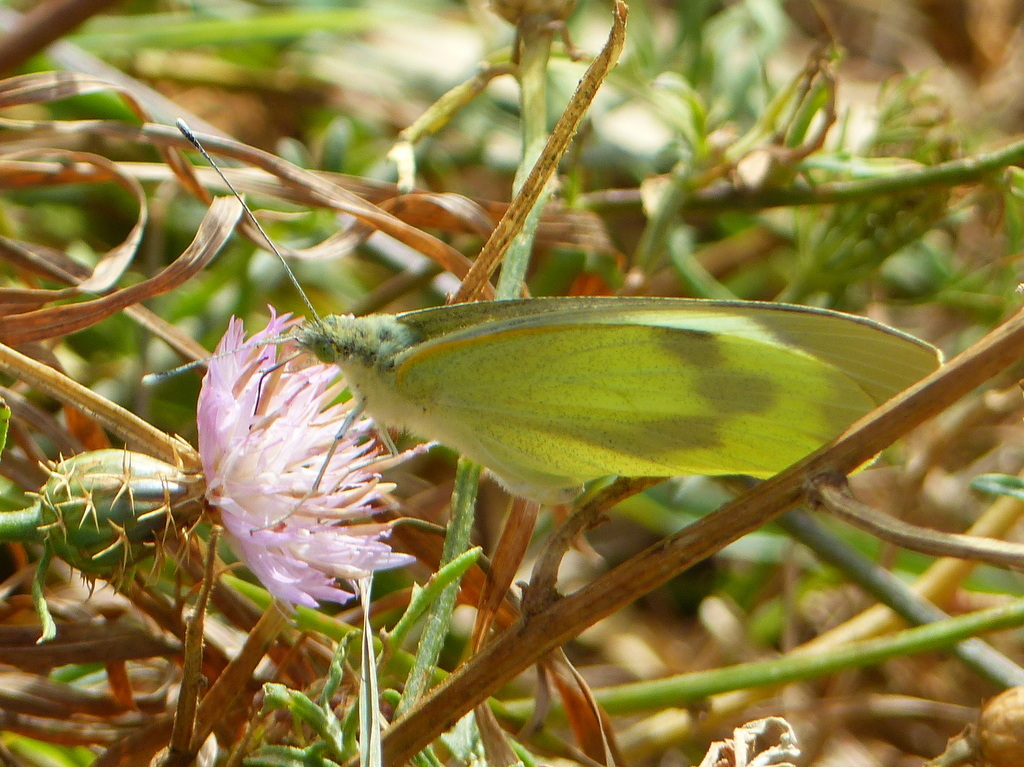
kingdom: Animalia
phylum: Arthropoda
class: Insecta
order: Lepidoptera
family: Pieridae
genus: Pieris
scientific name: Pieris brassicae
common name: Large white
